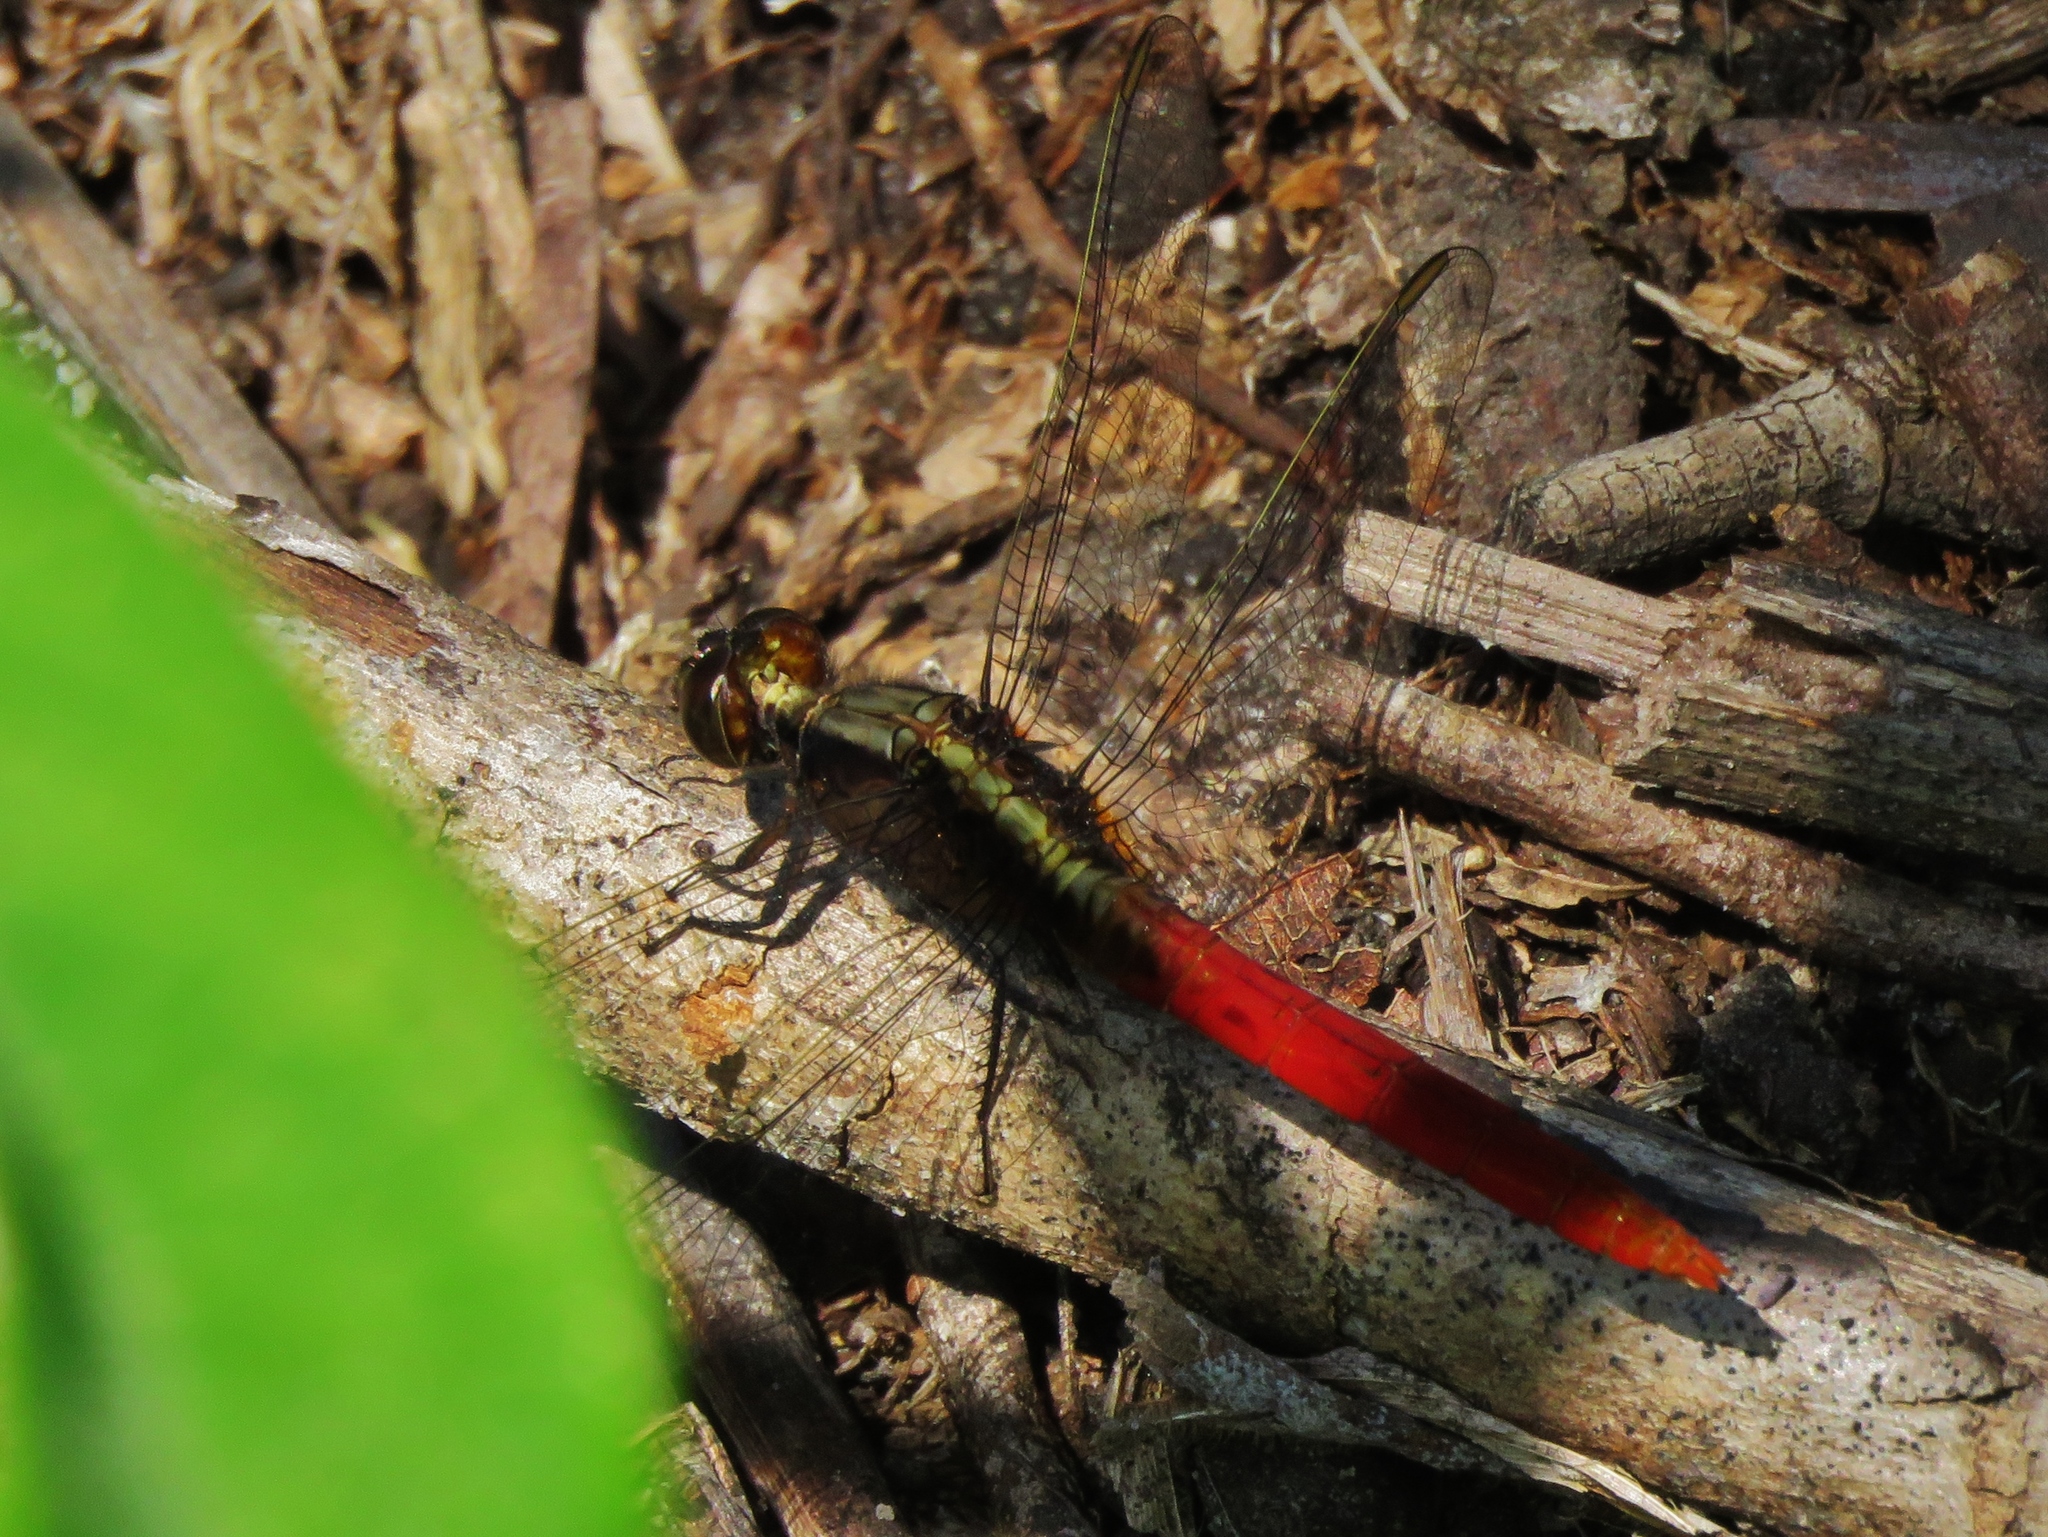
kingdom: Animalia
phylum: Arthropoda
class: Insecta
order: Odonata
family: Libellulidae
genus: Erythemis
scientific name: Erythemis peruviana
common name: Flame-tailed pondhawk
